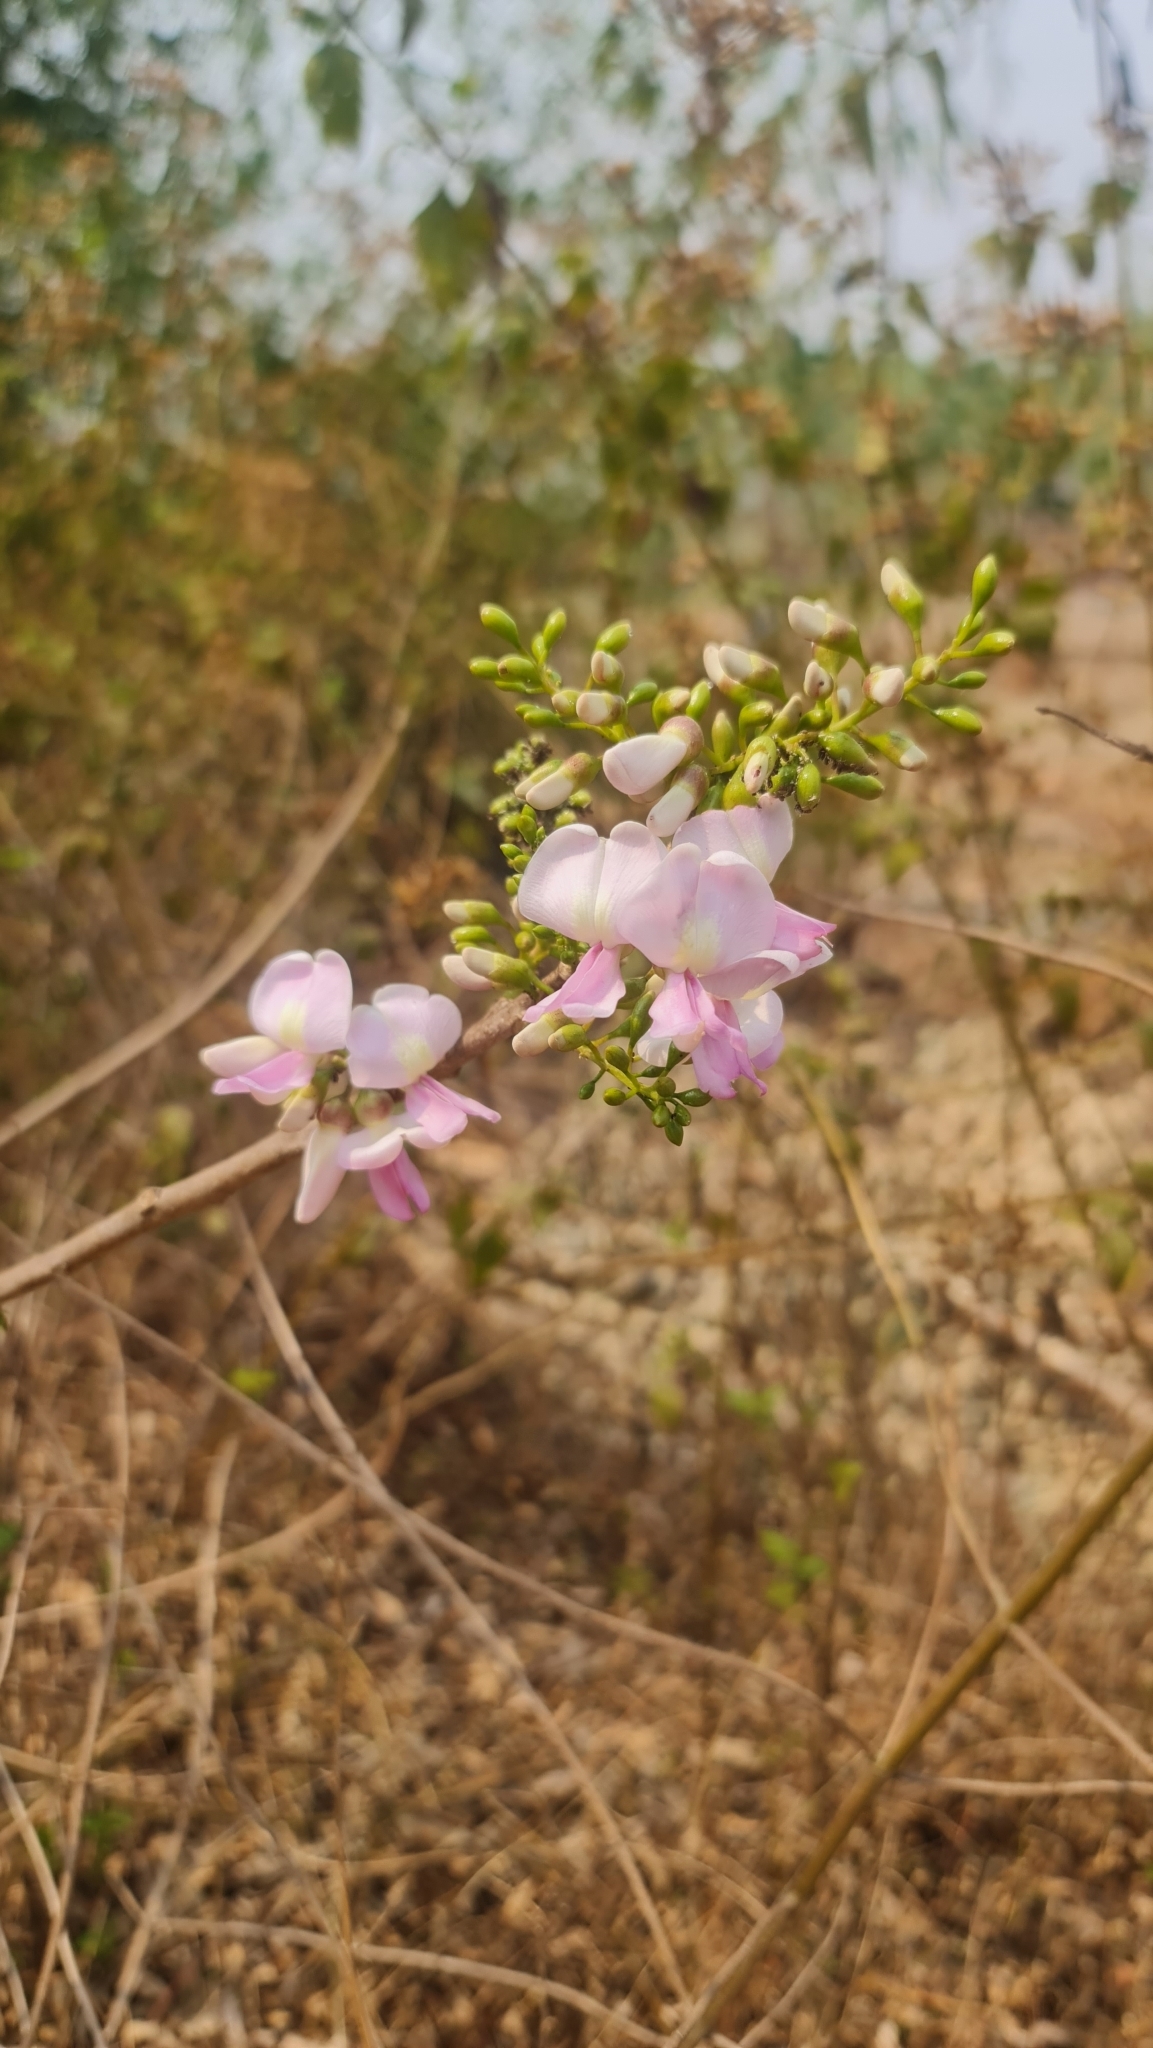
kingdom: Plantae
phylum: Tracheophyta
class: Magnoliopsida
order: Fabales
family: Fabaceae
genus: Gliricidia
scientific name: Gliricidia sepium
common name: Quickstick
